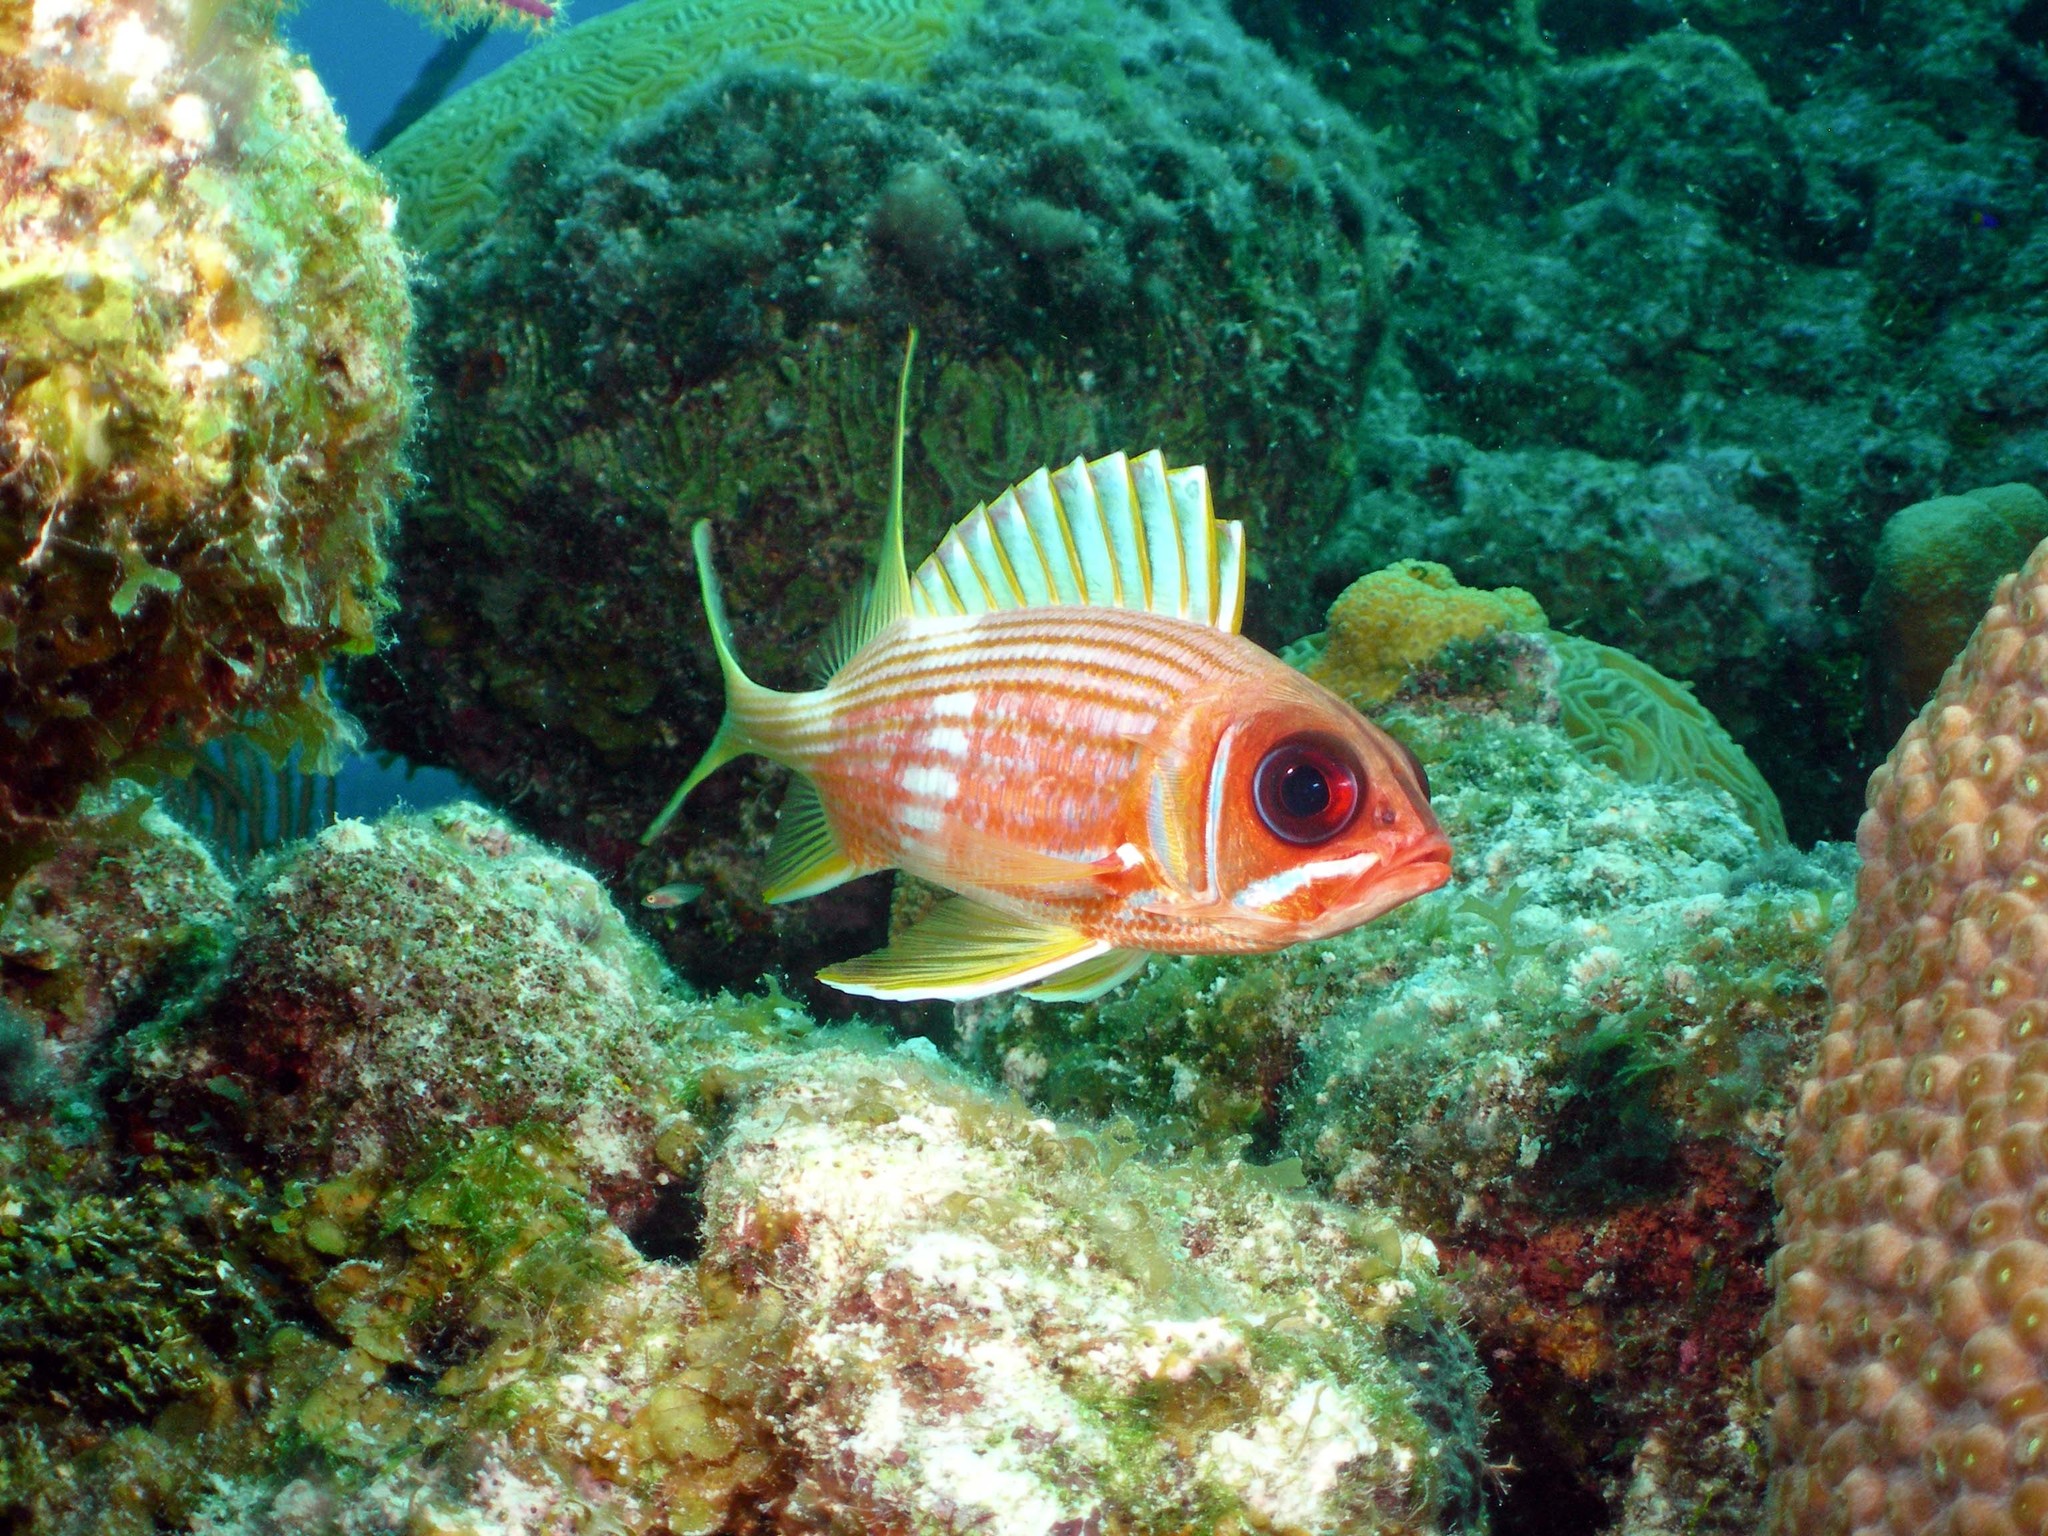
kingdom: Animalia
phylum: Chordata
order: Beryciformes
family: Holocentridae
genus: Holocentrus
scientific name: Holocentrus rufus
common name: Longspine squirrelfish
